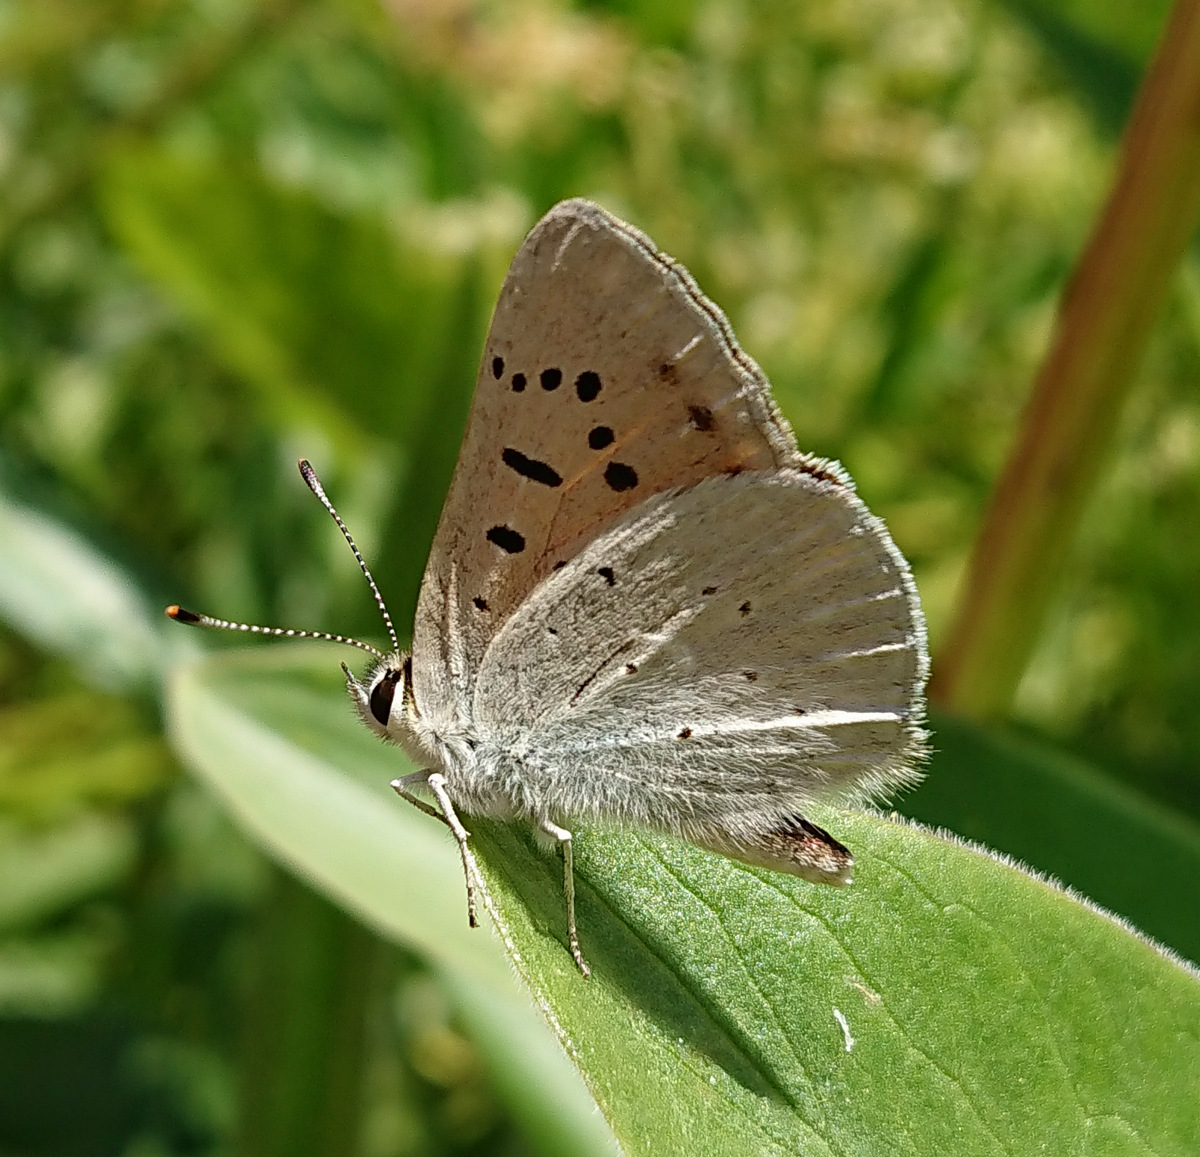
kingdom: Animalia
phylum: Arthropoda
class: Insecta
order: Lepidoptera
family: Lycaenidae
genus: Tharsalea
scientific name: Tharsalea rubidus
